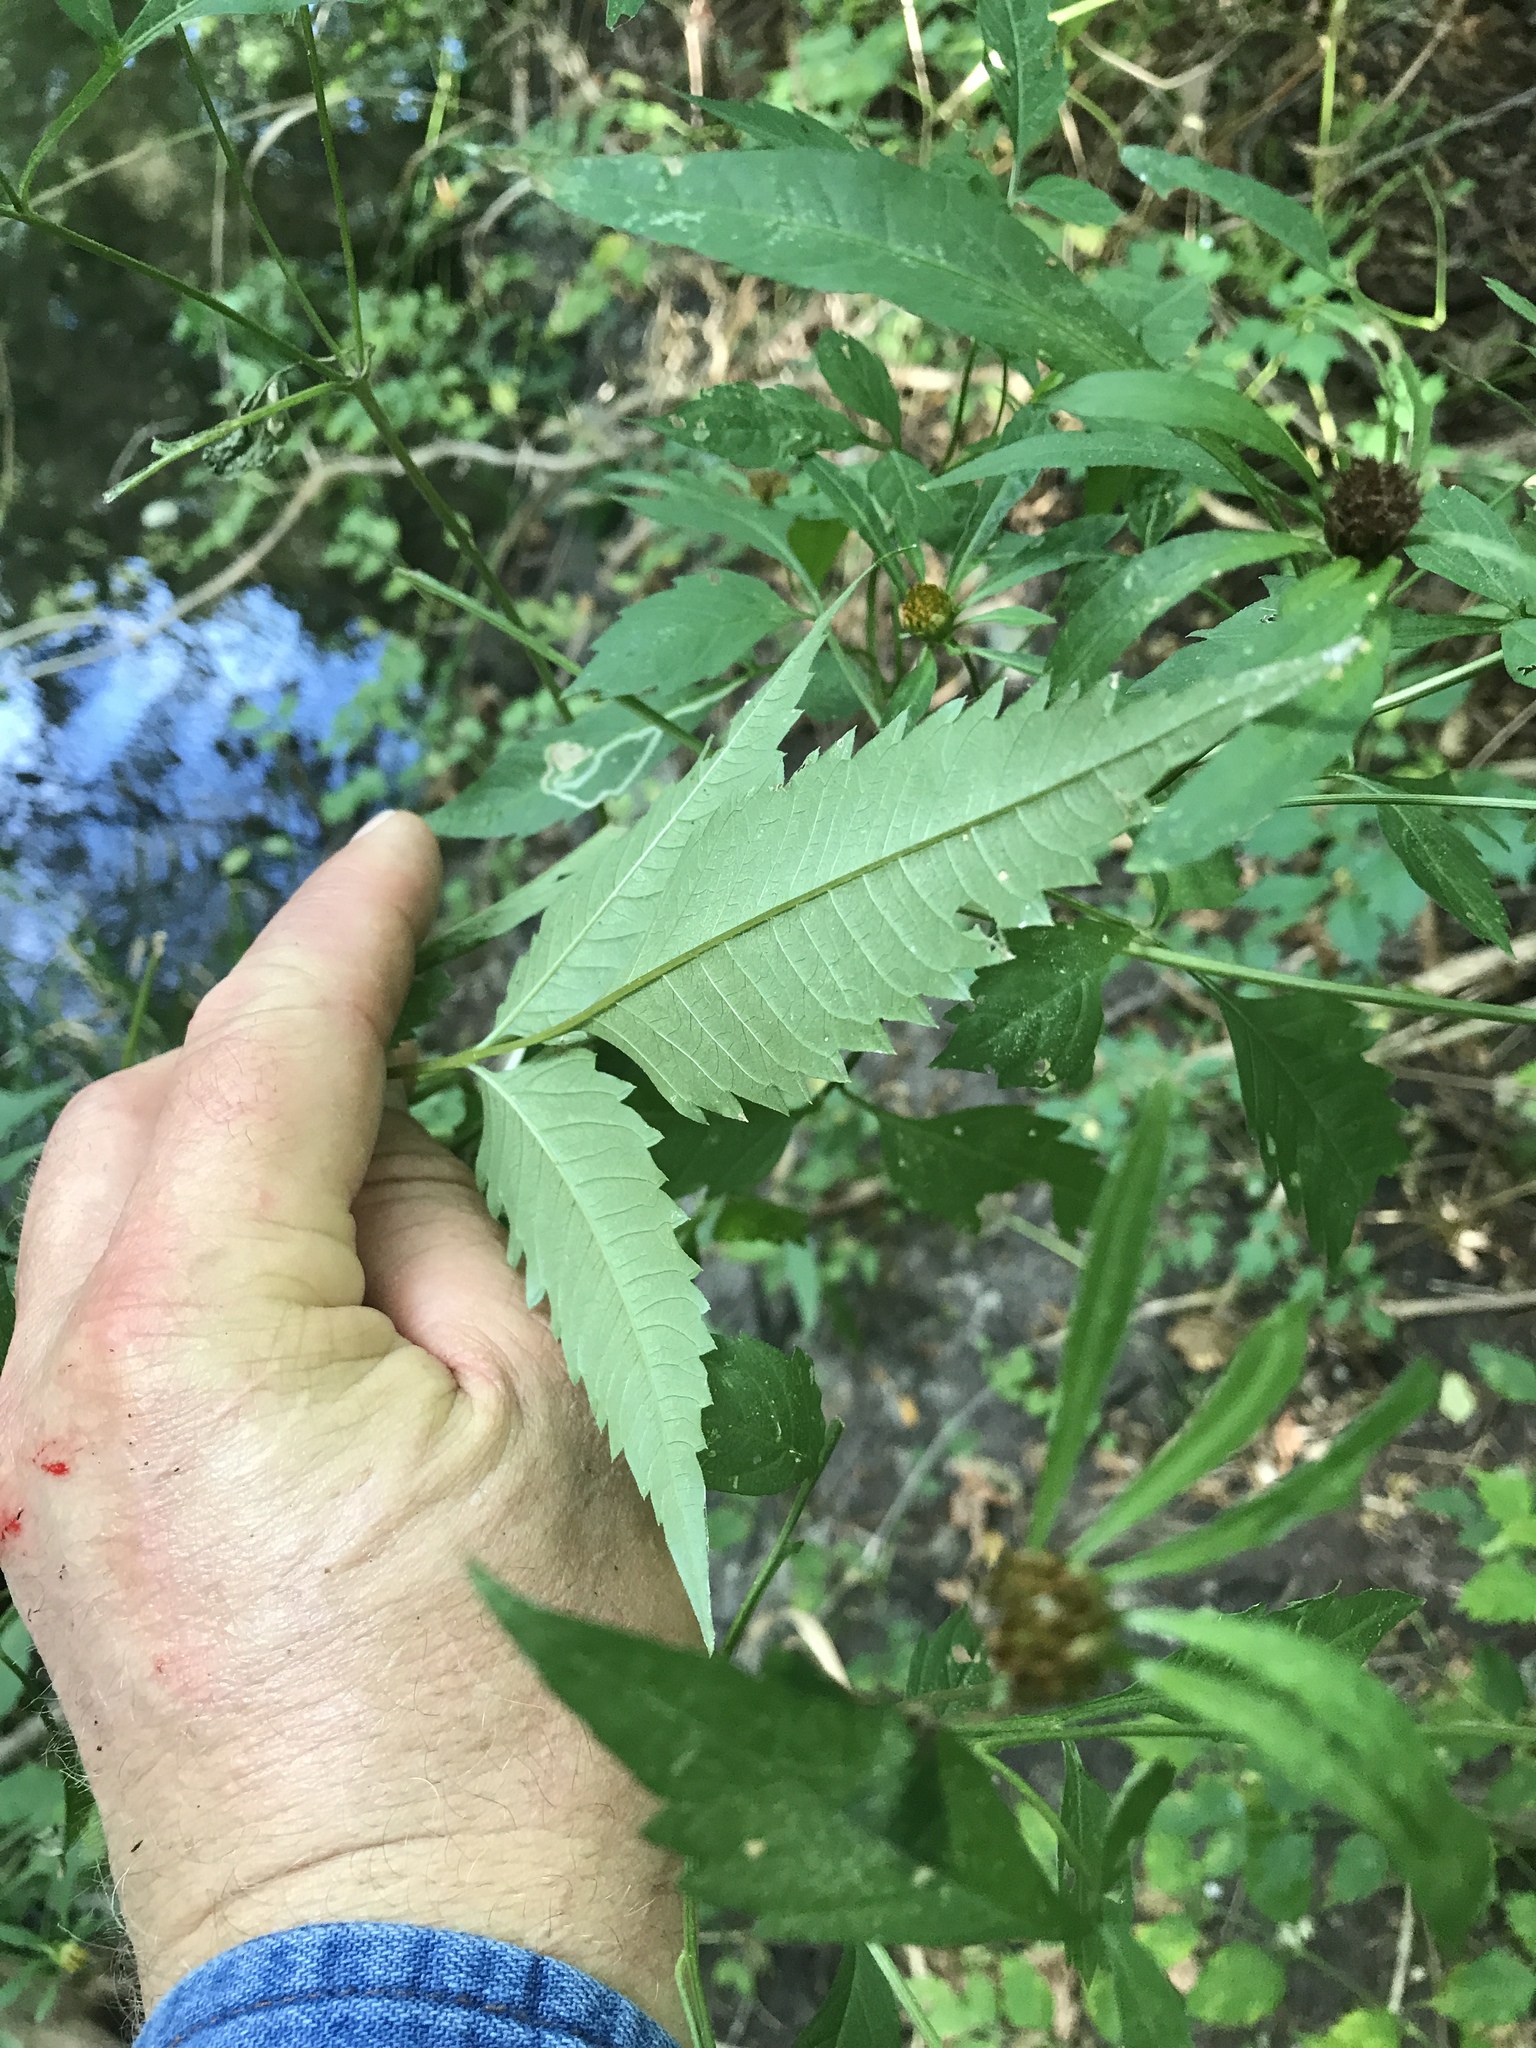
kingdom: Plantae
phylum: Tracheophyta
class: Magnoliopsida
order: Asterales
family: Asteraceae
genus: Bidens
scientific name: Bidens frondosa
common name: Beggarticks
